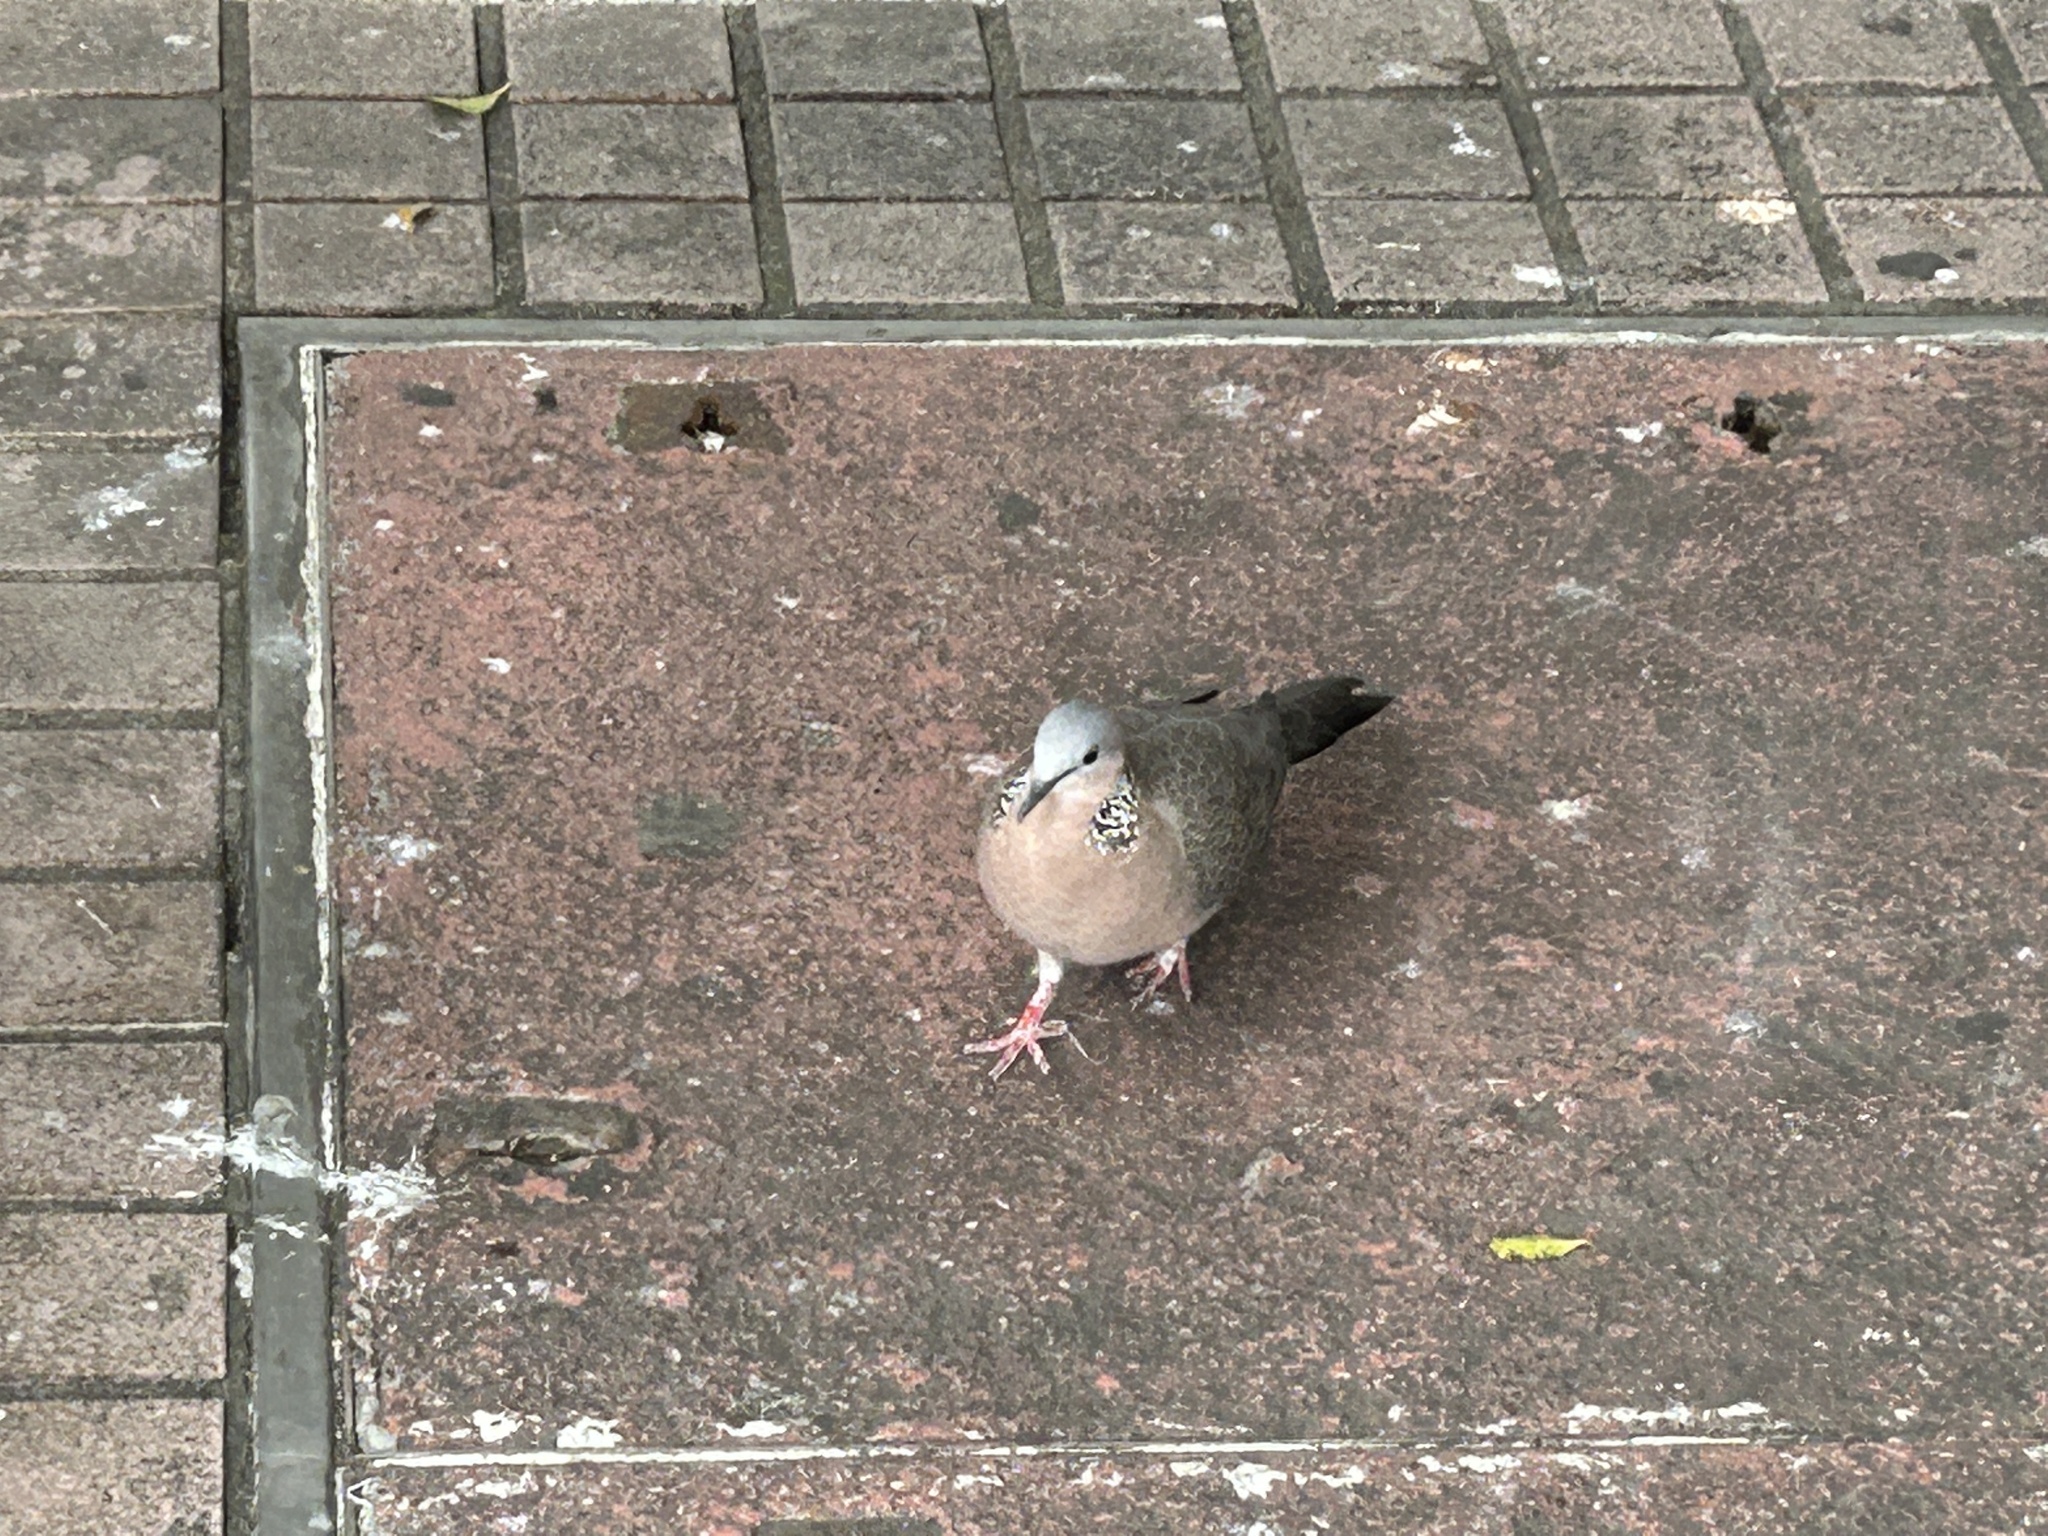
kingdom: Animalia
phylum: Chordata
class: Aves
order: Columbiformes
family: Columbidae
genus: Spilopelia
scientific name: Spilopelia chinensis
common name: Spotted dove
